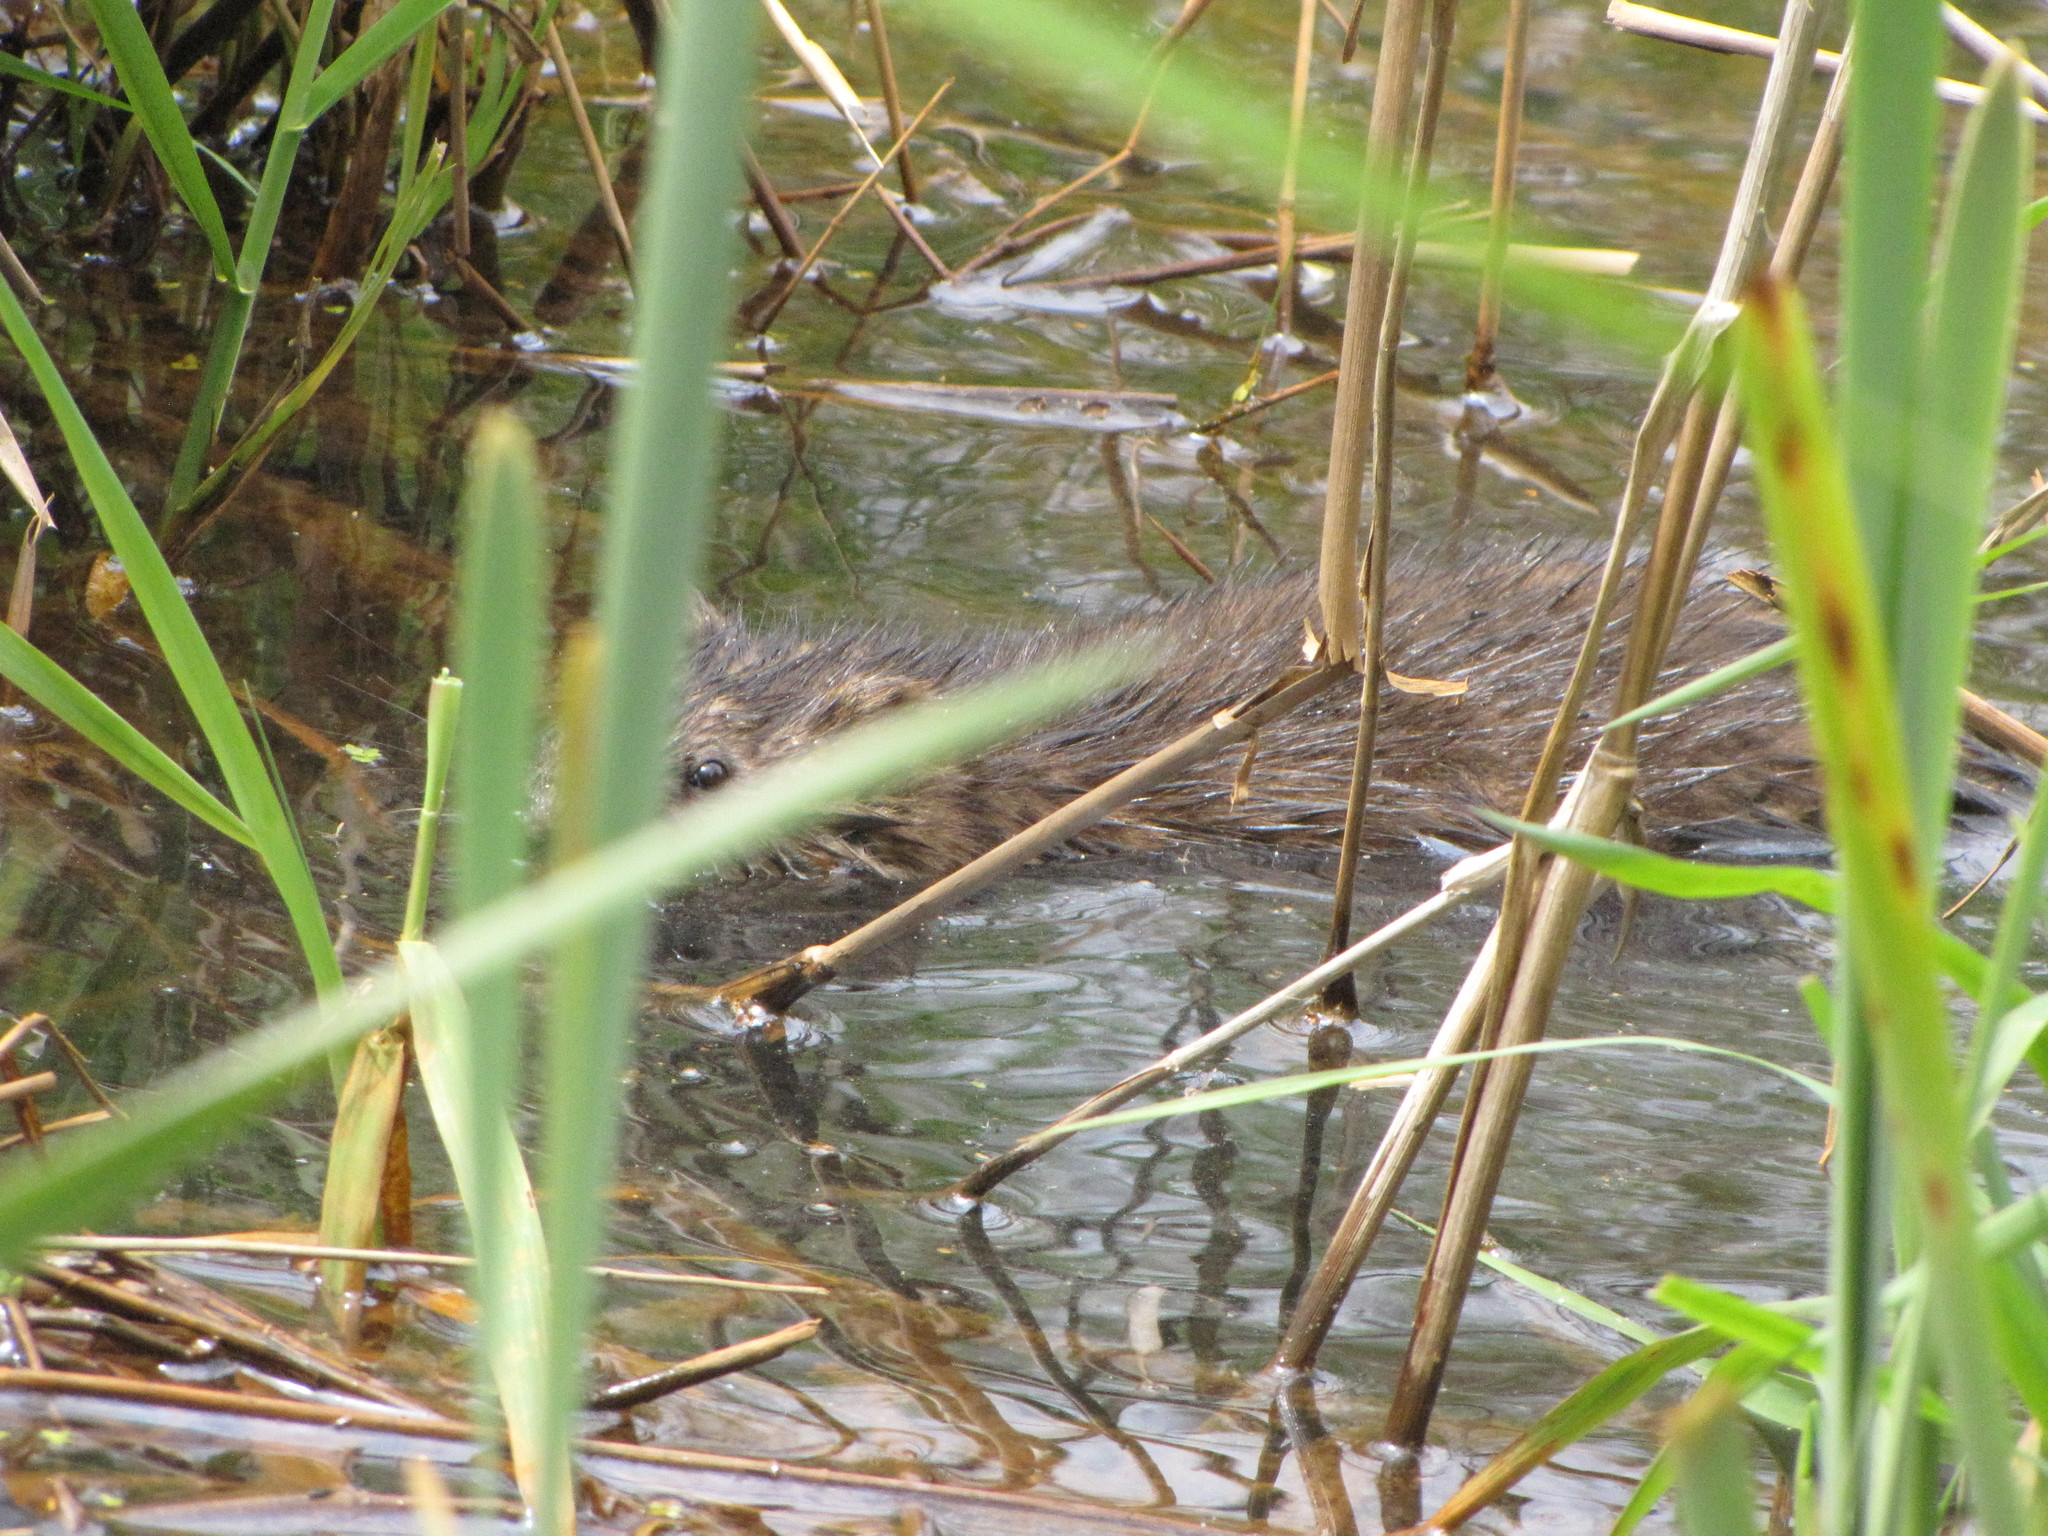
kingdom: Animalia
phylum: Chordata
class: Mammalia
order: Rodentia
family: Cricetidae
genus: Ondatra
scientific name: Ondatra zibethicus
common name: Muskrat
